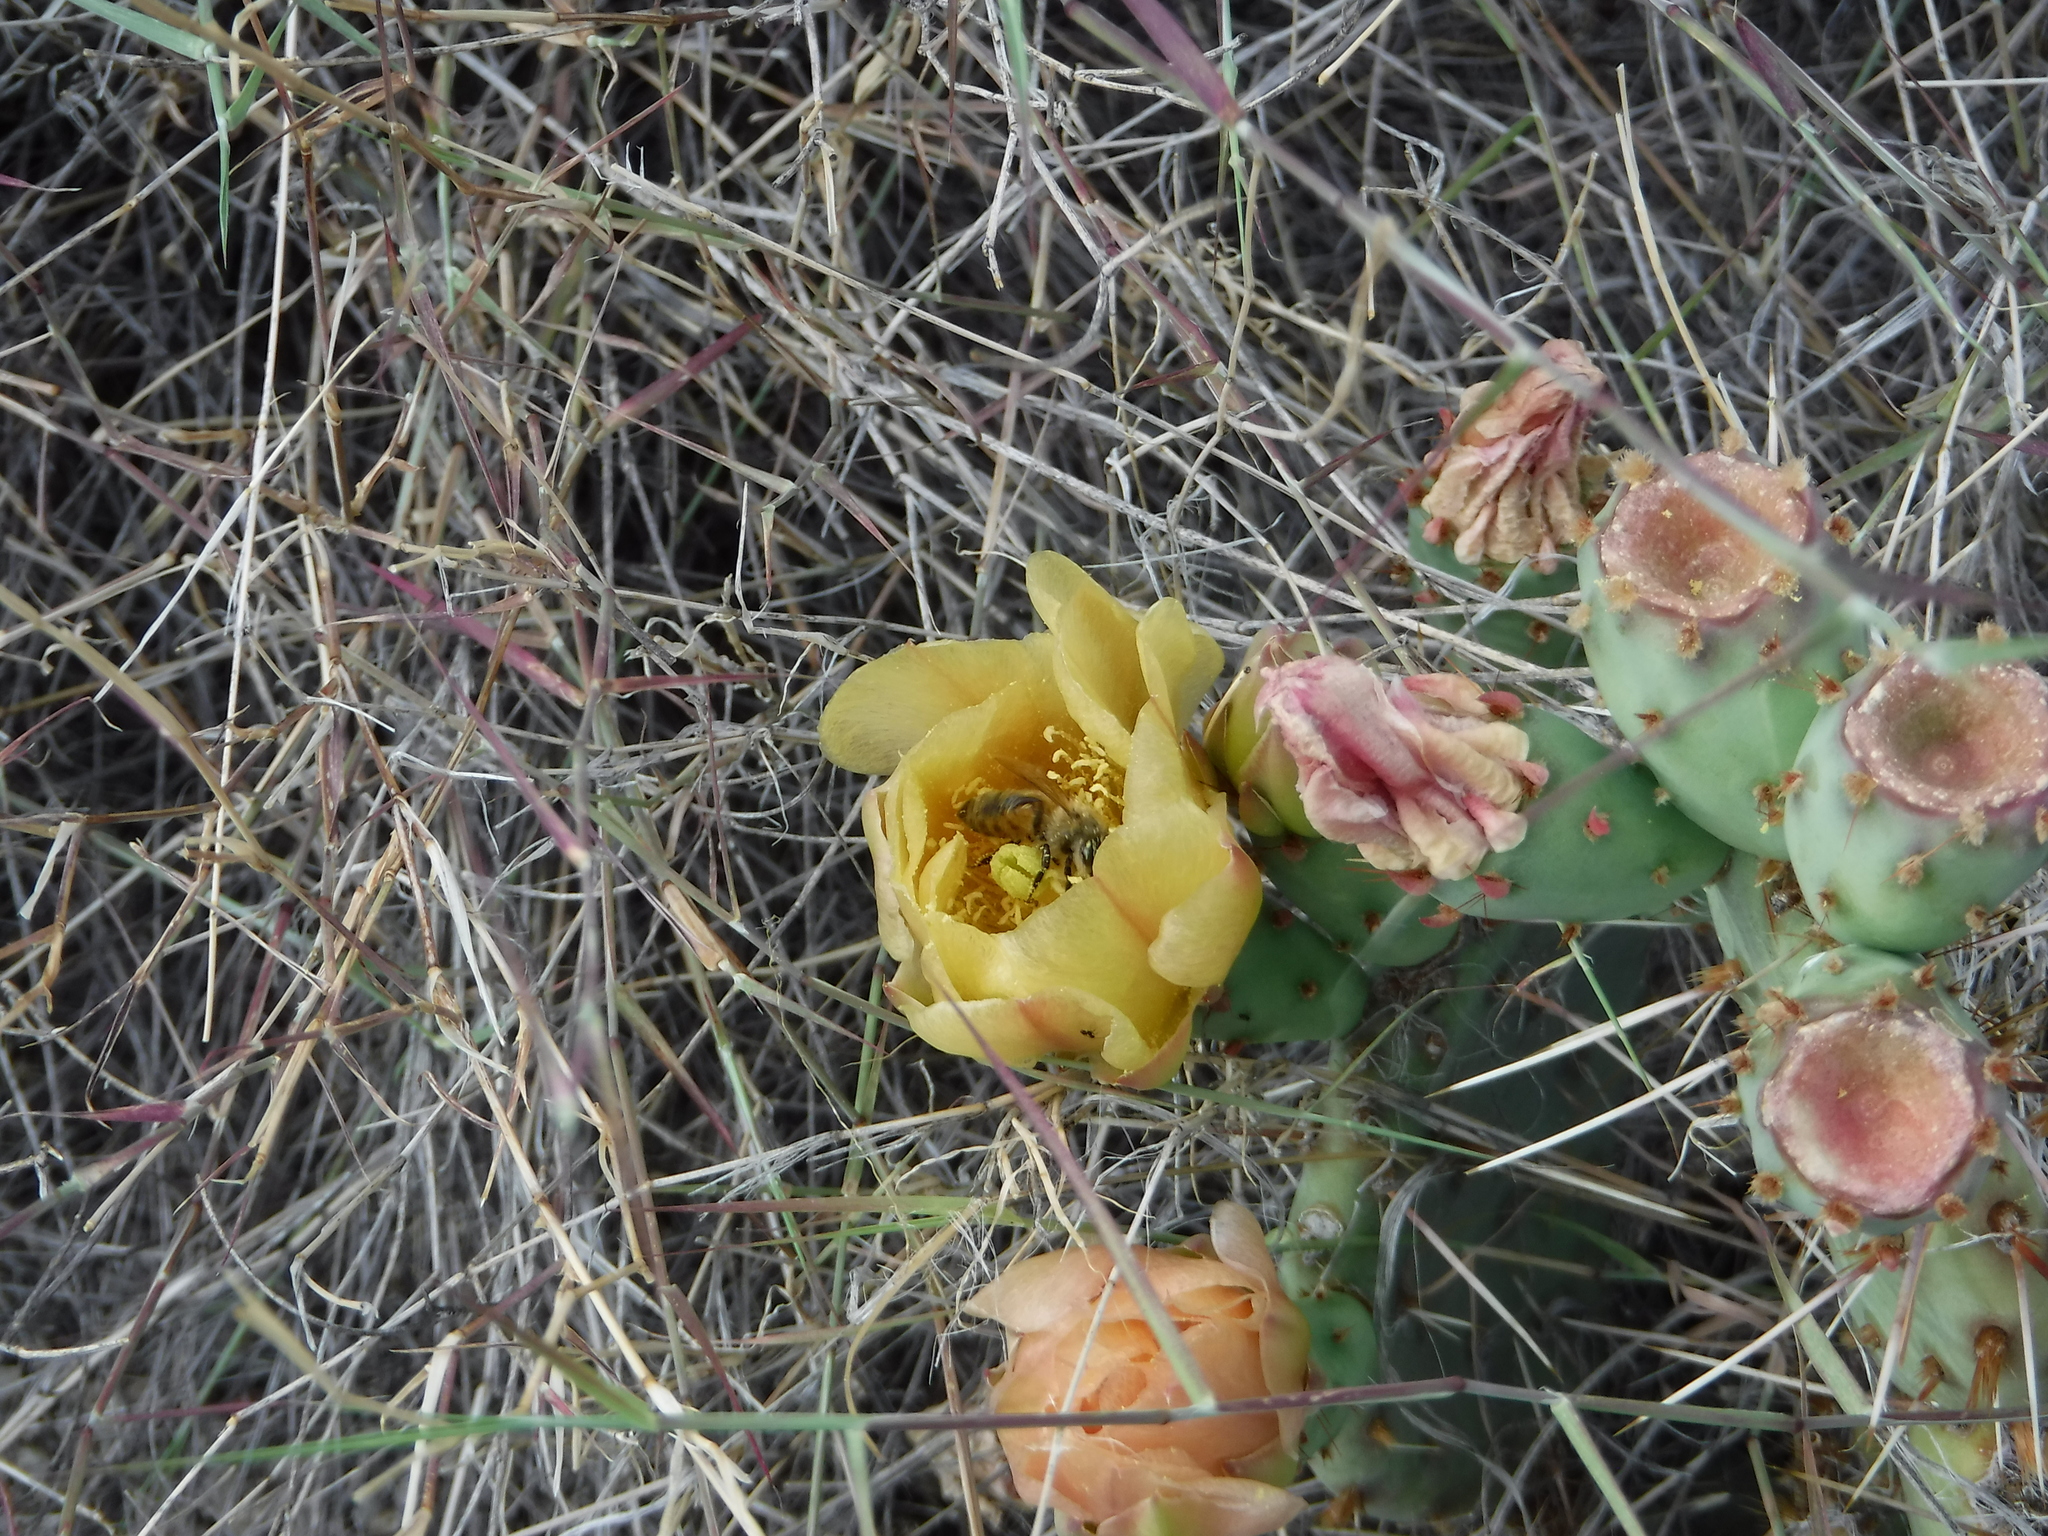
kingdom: Animalia
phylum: Arthropoda
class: Insecta
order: Hymenoptera
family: Apidae
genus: Apis
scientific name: Apis mellifera
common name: Honey bee
